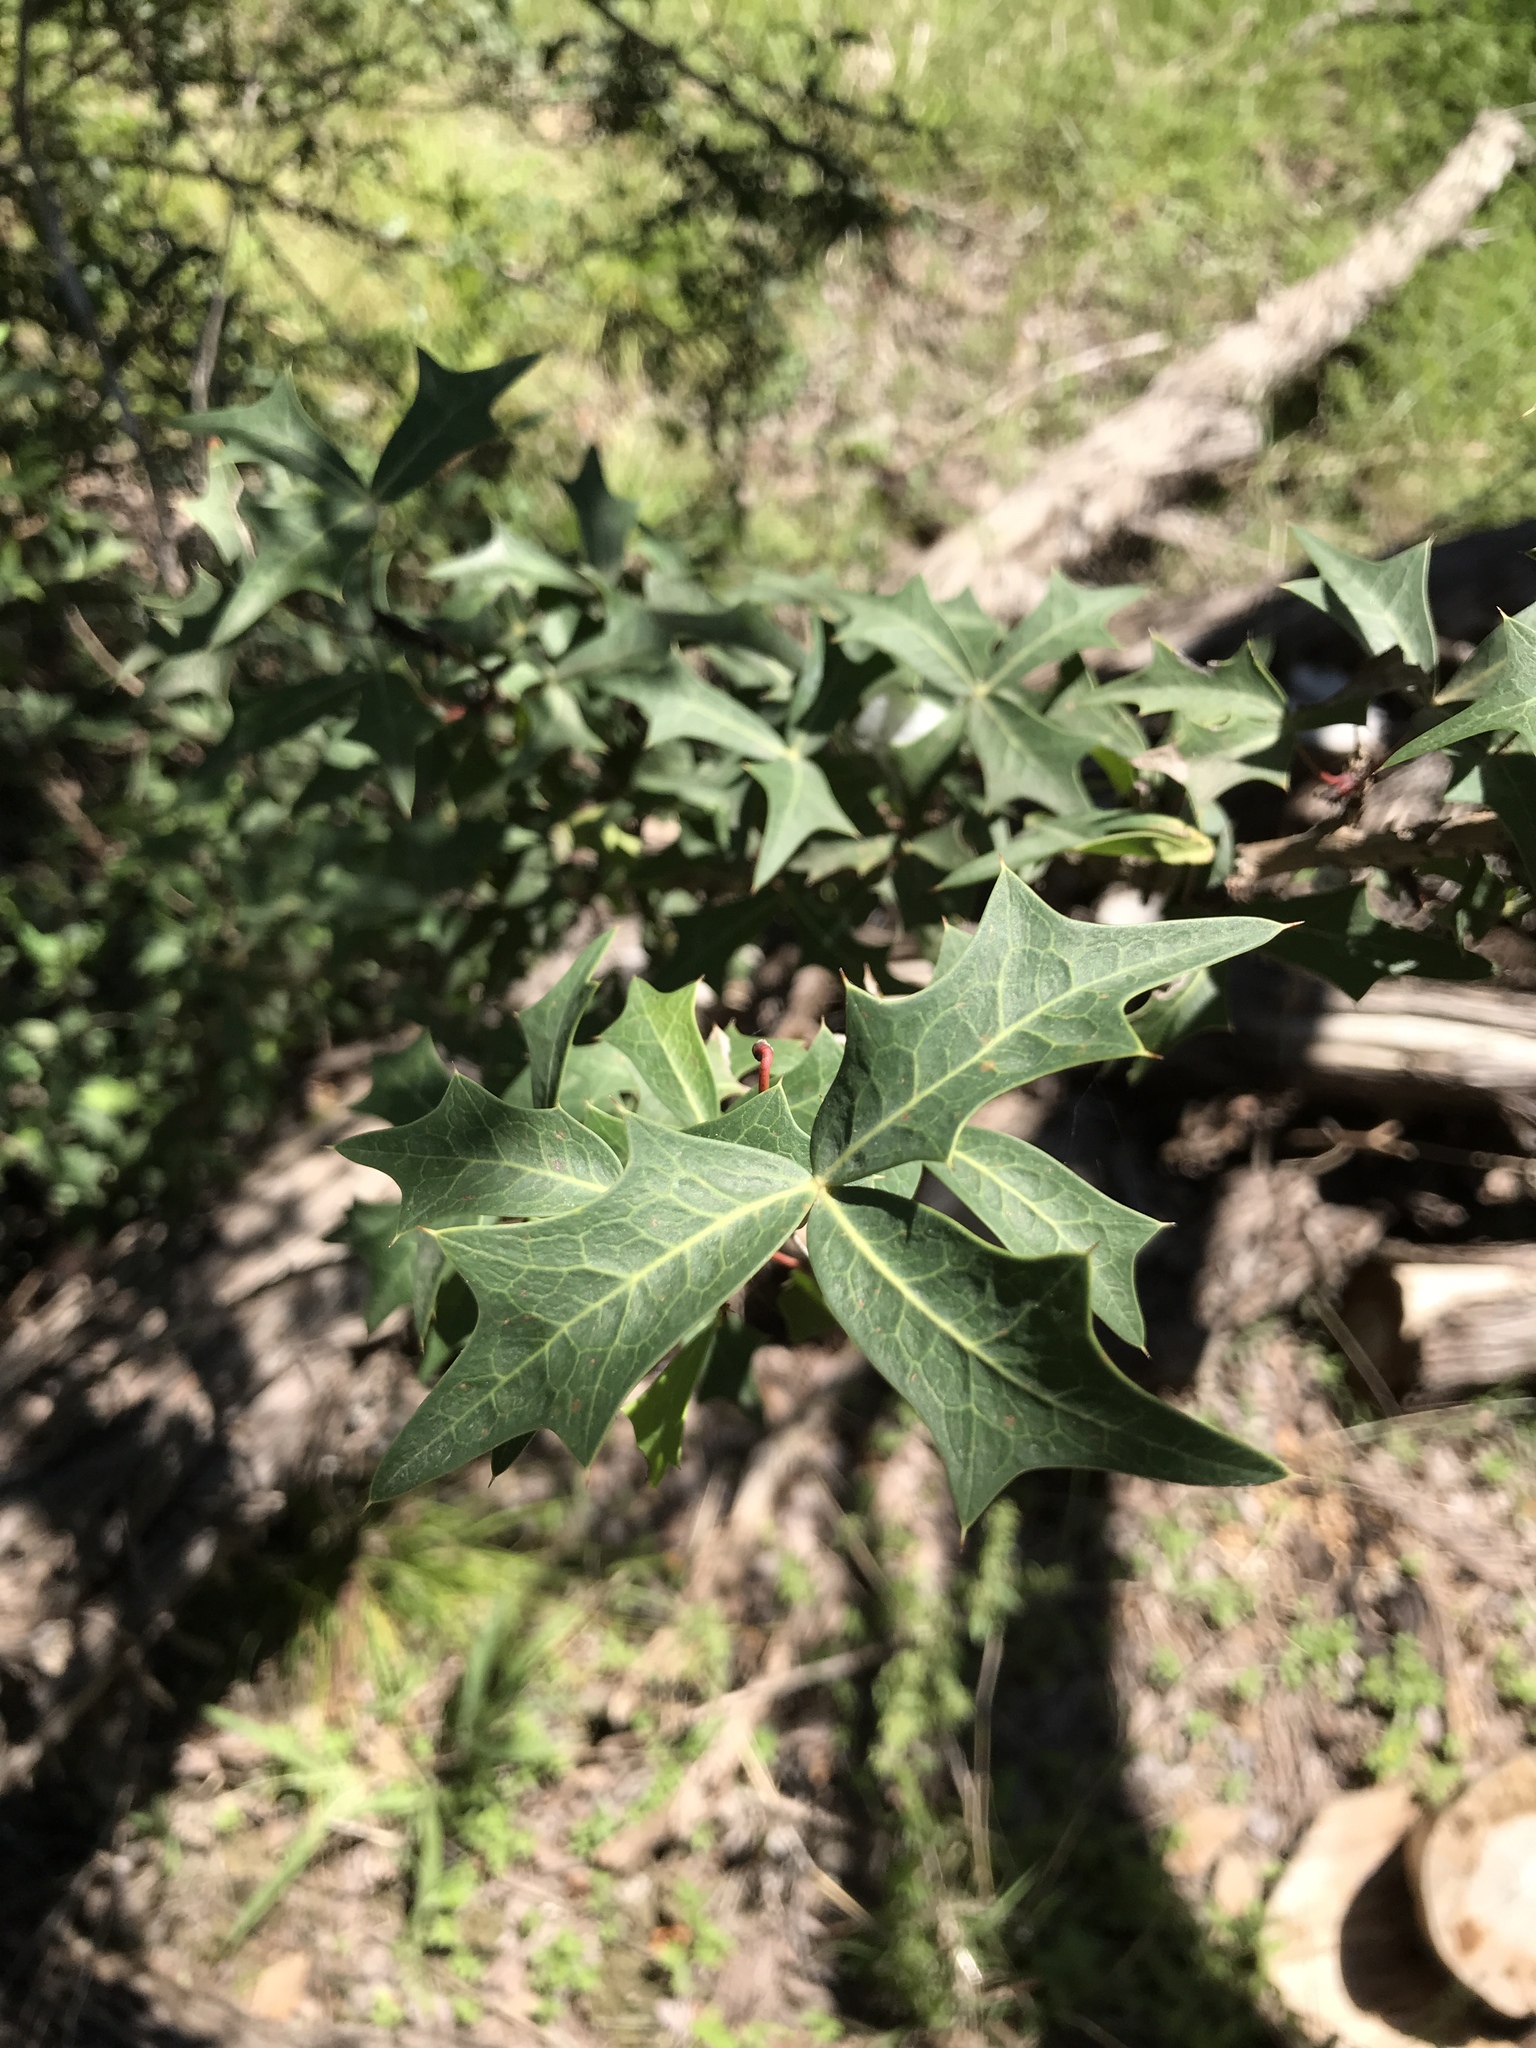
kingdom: Plantae
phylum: Tracheophyta
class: Magnoliopsida
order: Ranunculales
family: Berberidaceae
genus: Alloberberis
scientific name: Alloberberis trifoliolata
